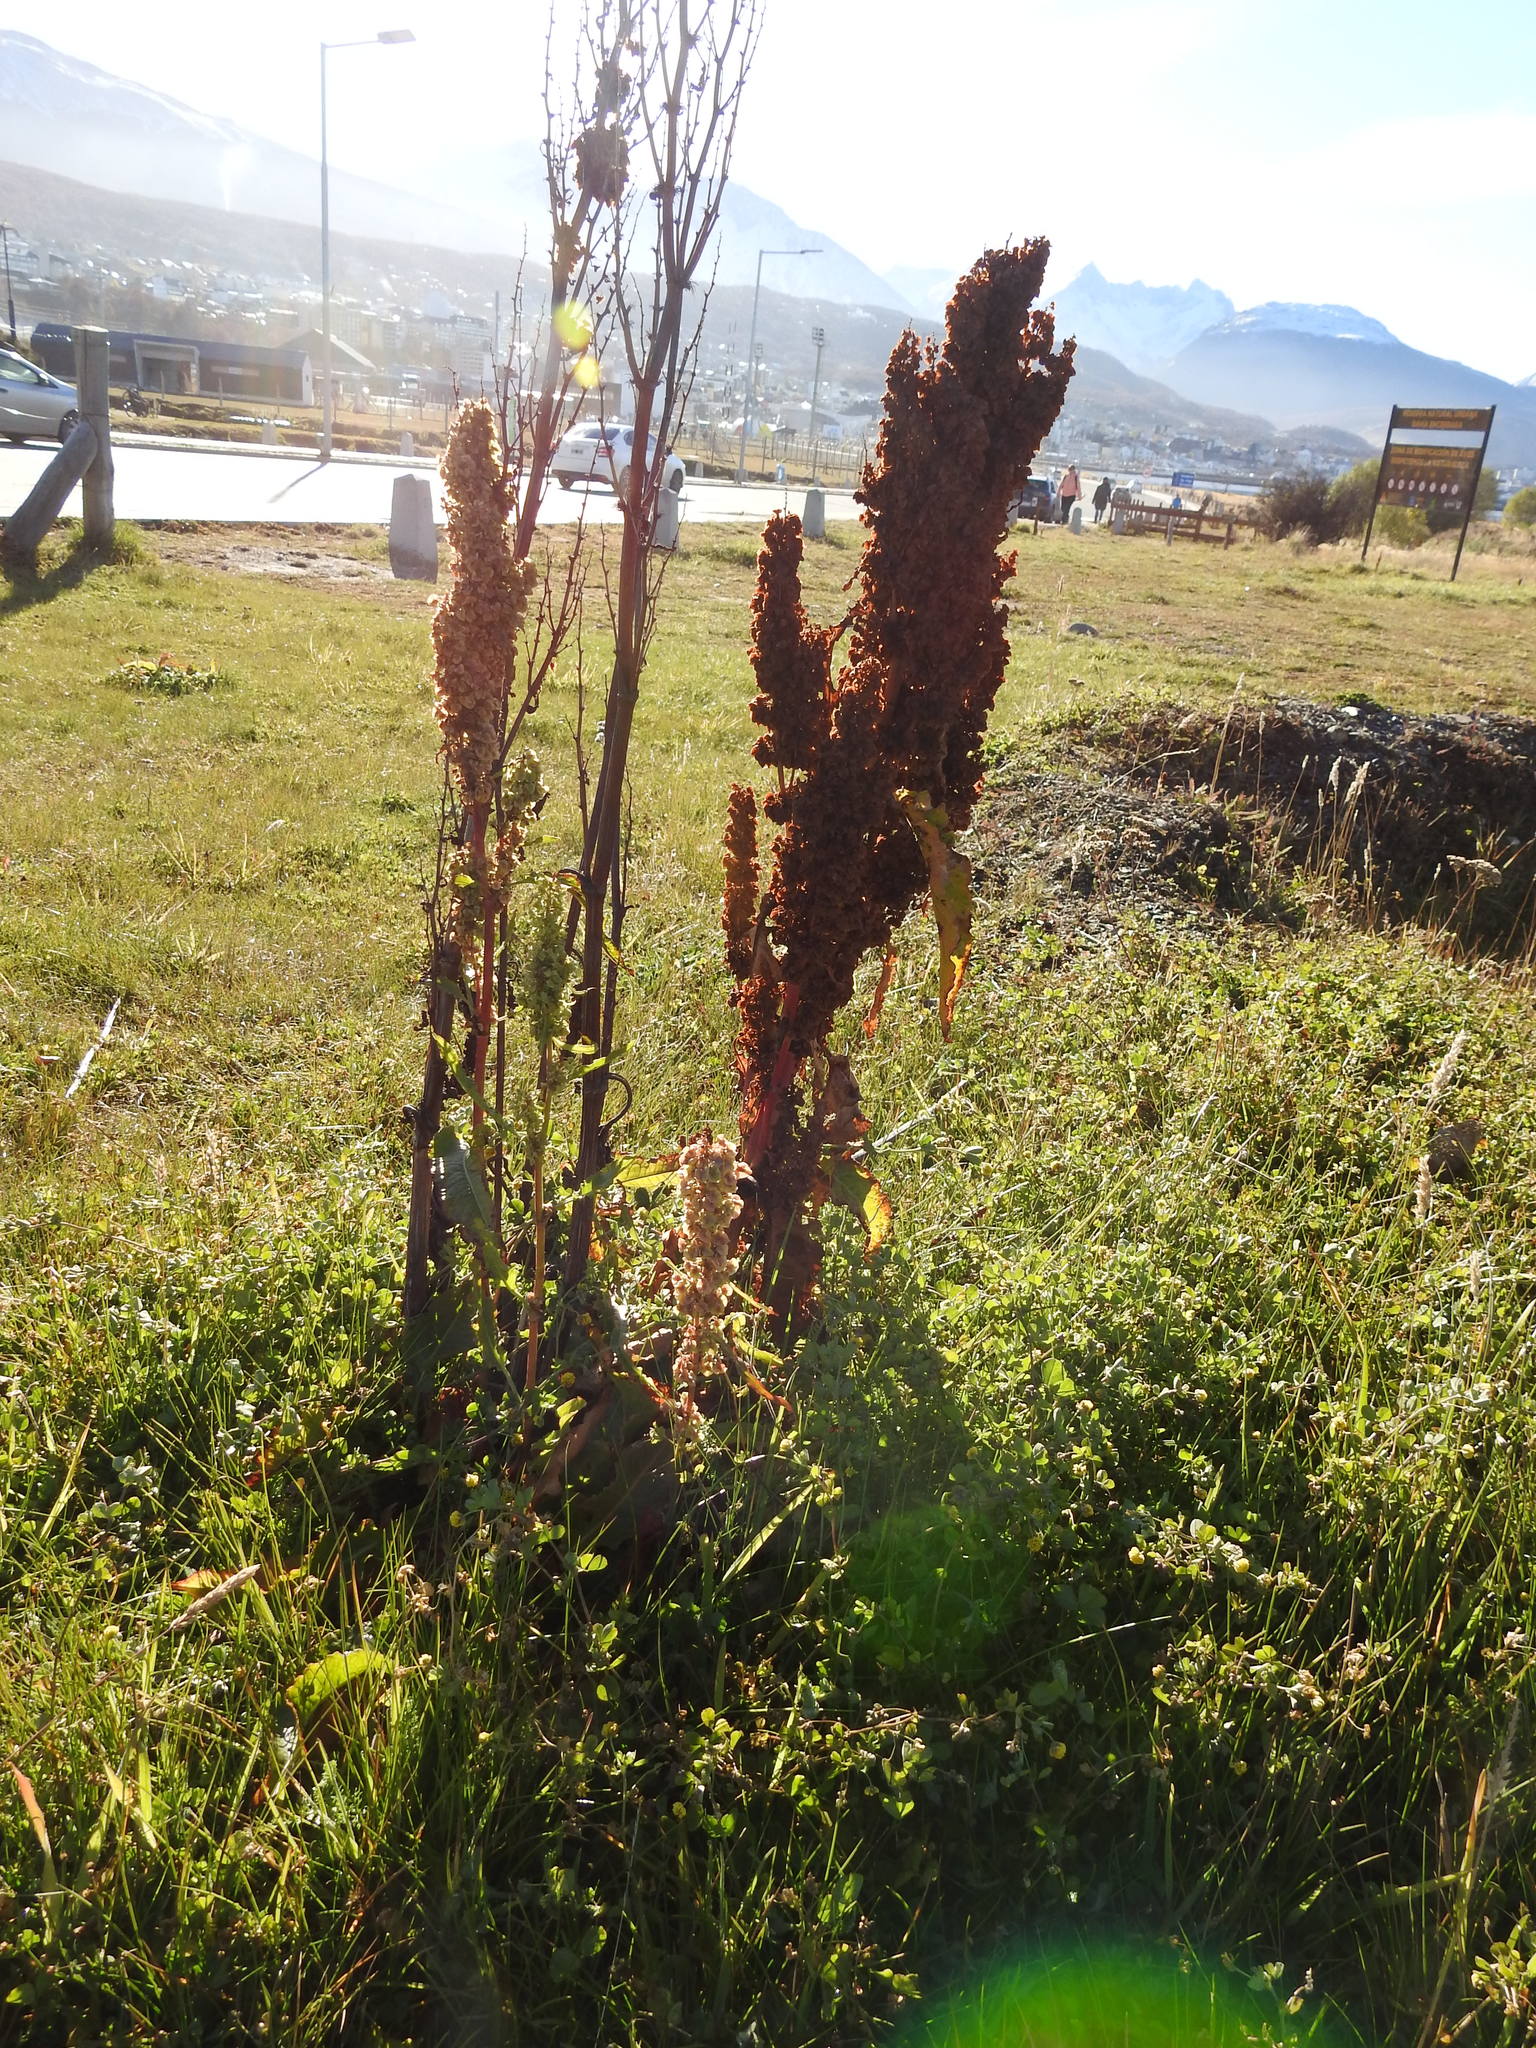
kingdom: Plantae
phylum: Tracheophyta
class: Magnoliopsida
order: Caryophyllales
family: Polygonaceae
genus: Rumex
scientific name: Rumex crispus
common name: Curled dock
